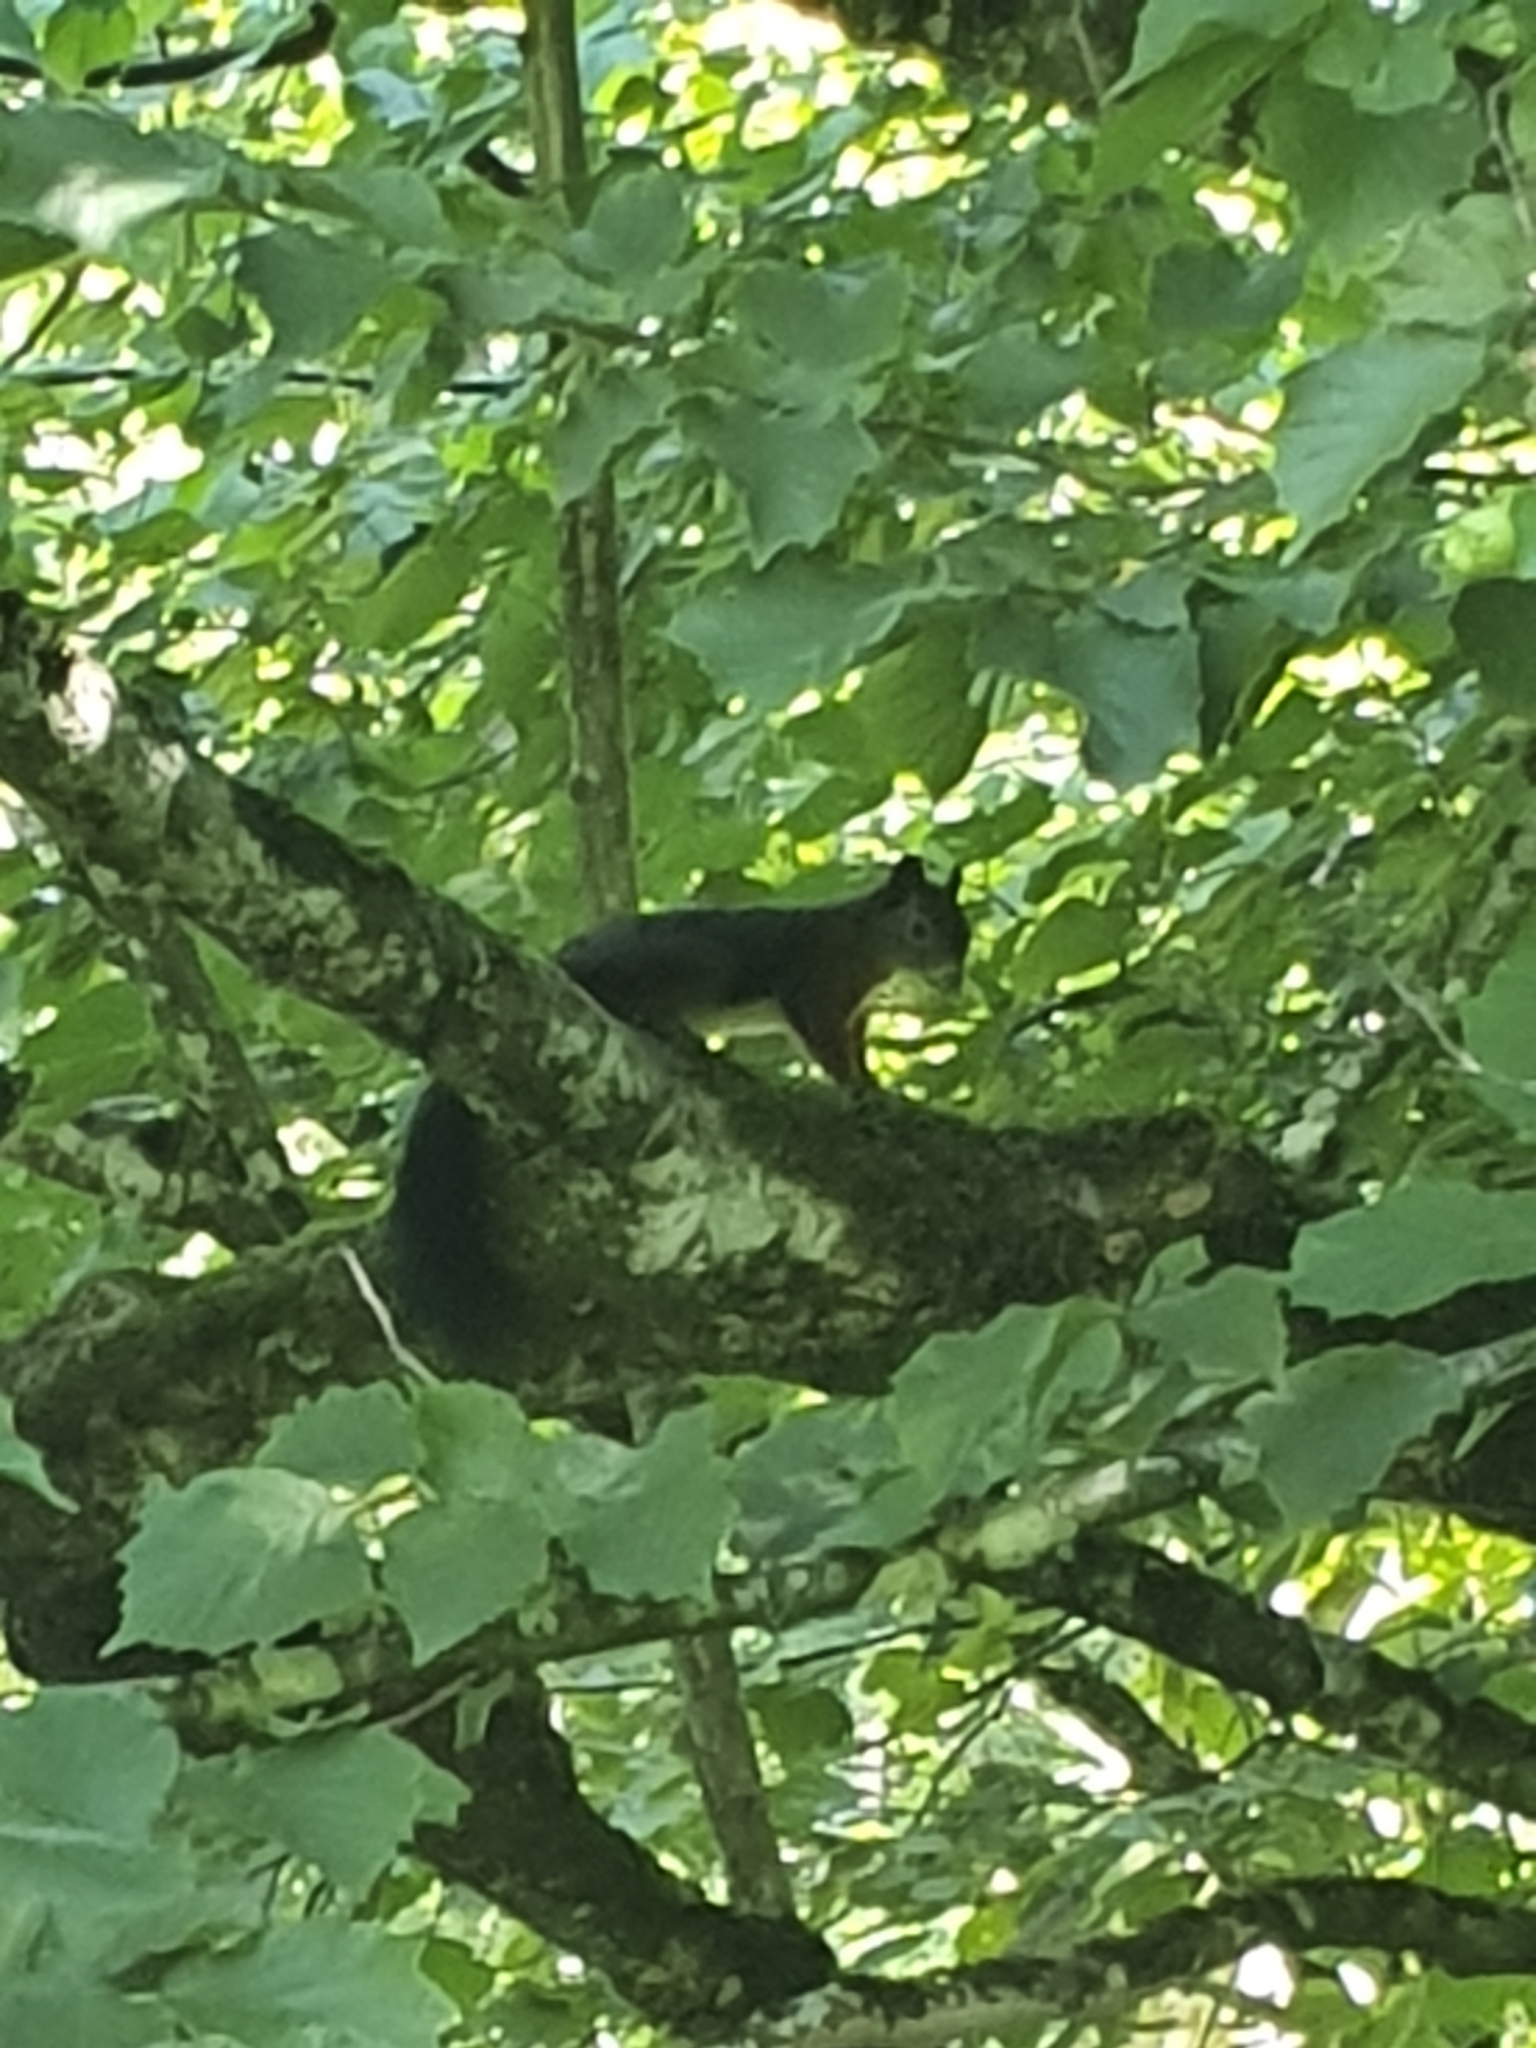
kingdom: Animalia
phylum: Chordata
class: Mammalia
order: Rodentia
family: Sciuridae
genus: Sciurus
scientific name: Sciurus vulgaris
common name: Eurasian red squirrel
